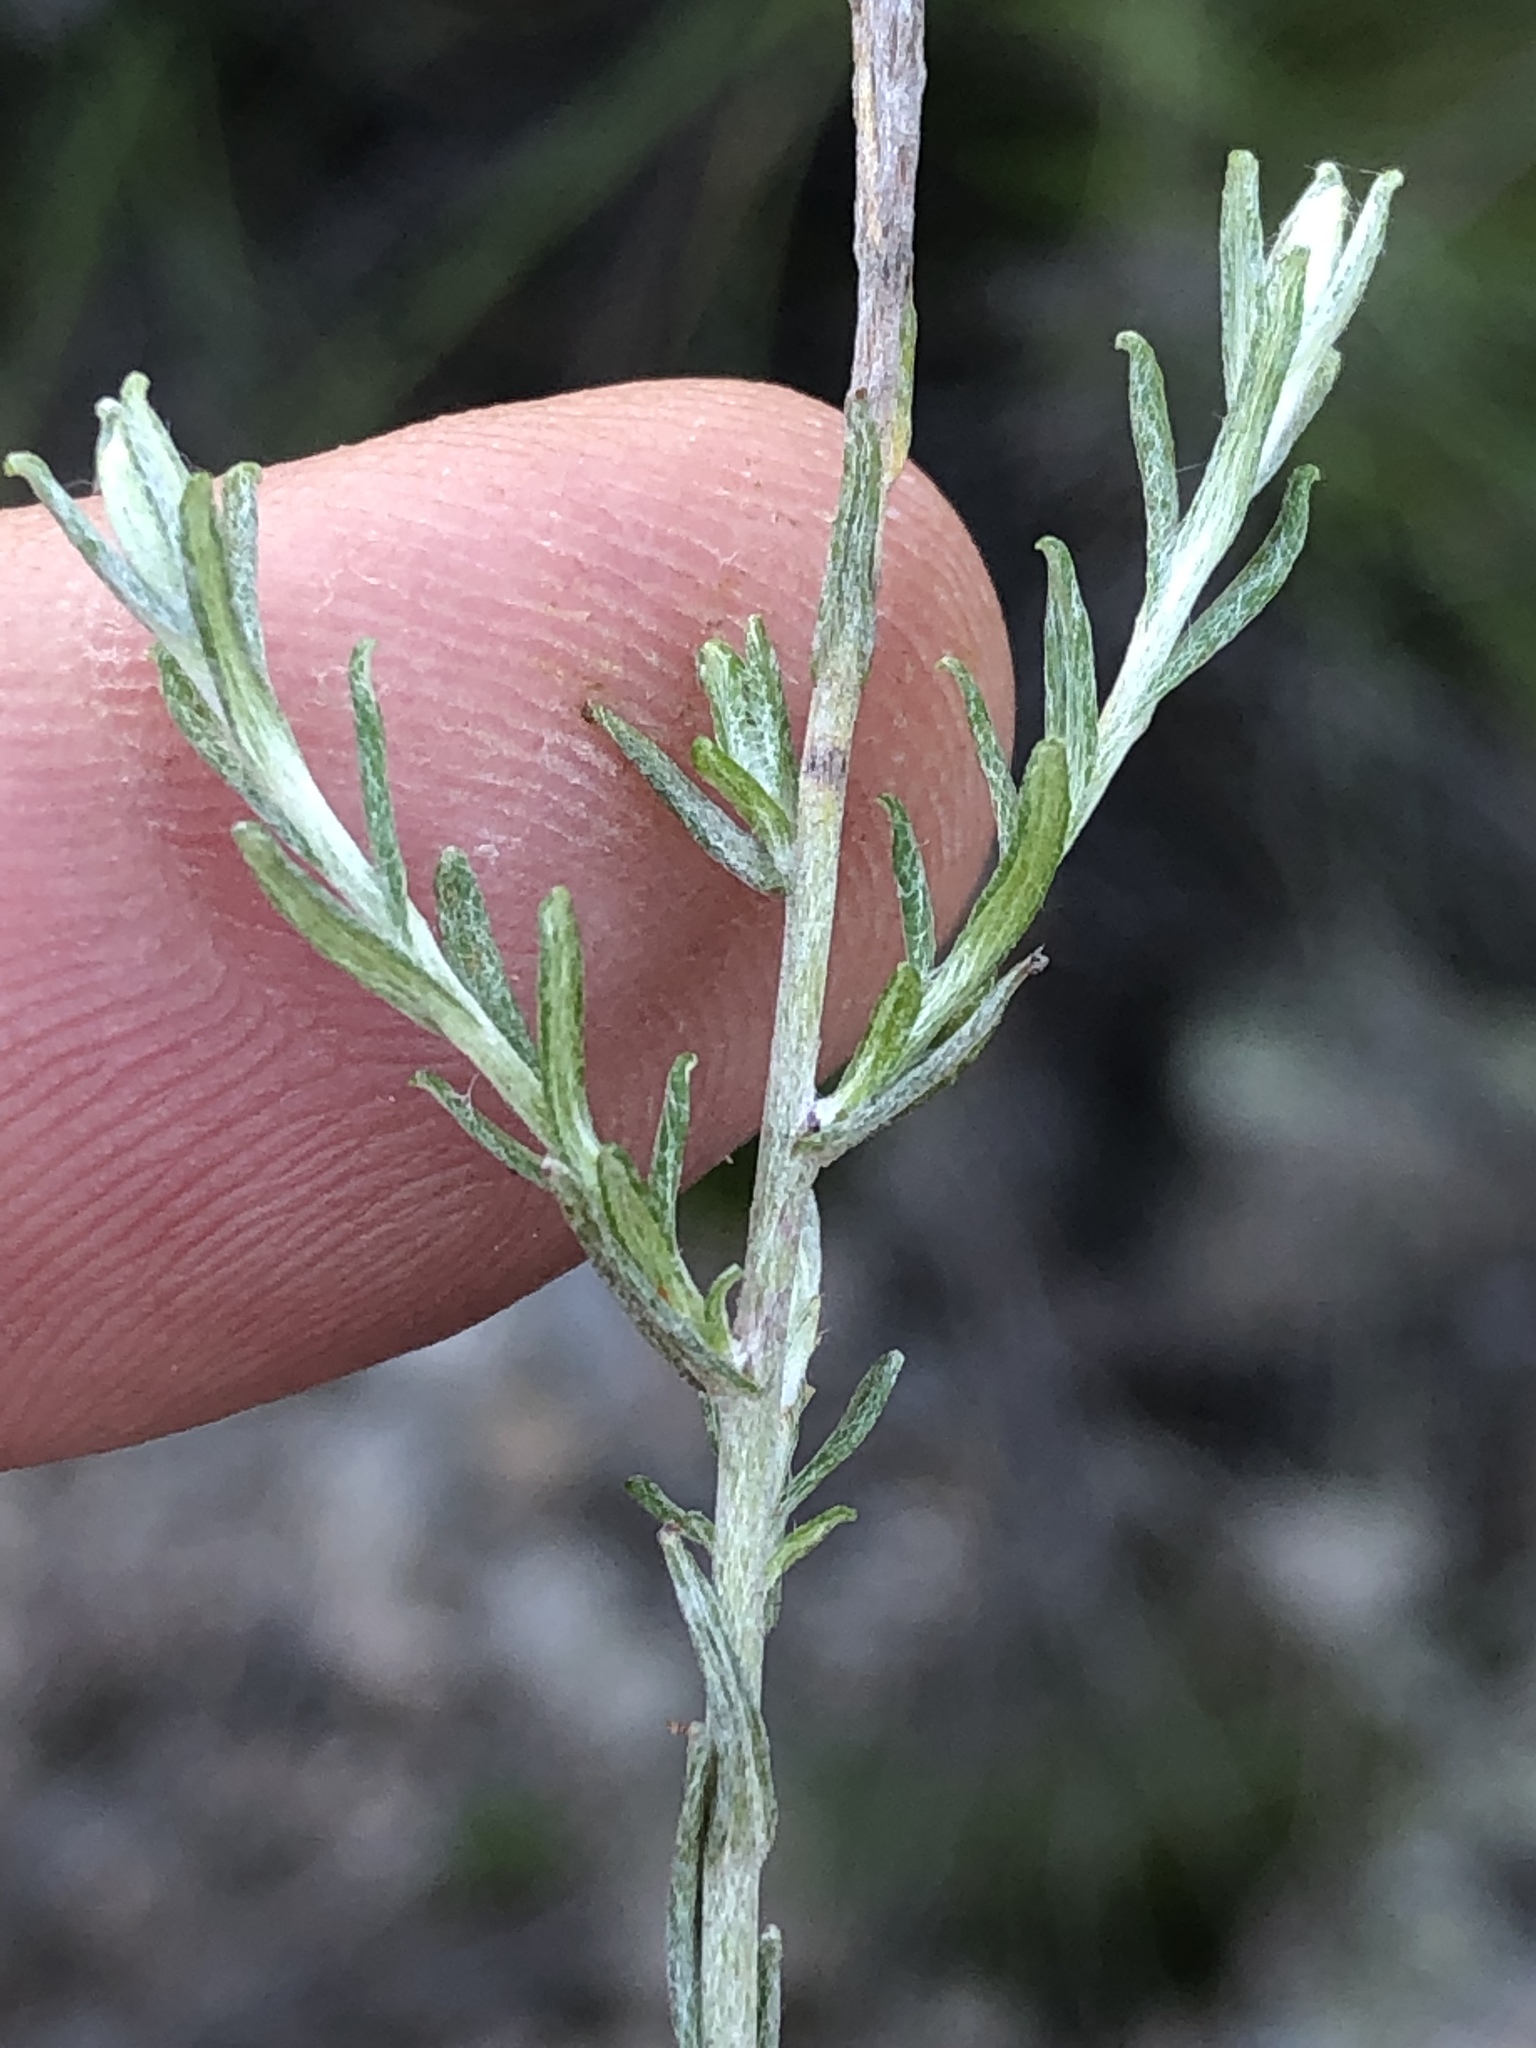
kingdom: Plantae
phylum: Tracheophyta
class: Magnoliopsida
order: Asterales
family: Asteraceae
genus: Helichrysum
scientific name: Helichrysum anomalum
